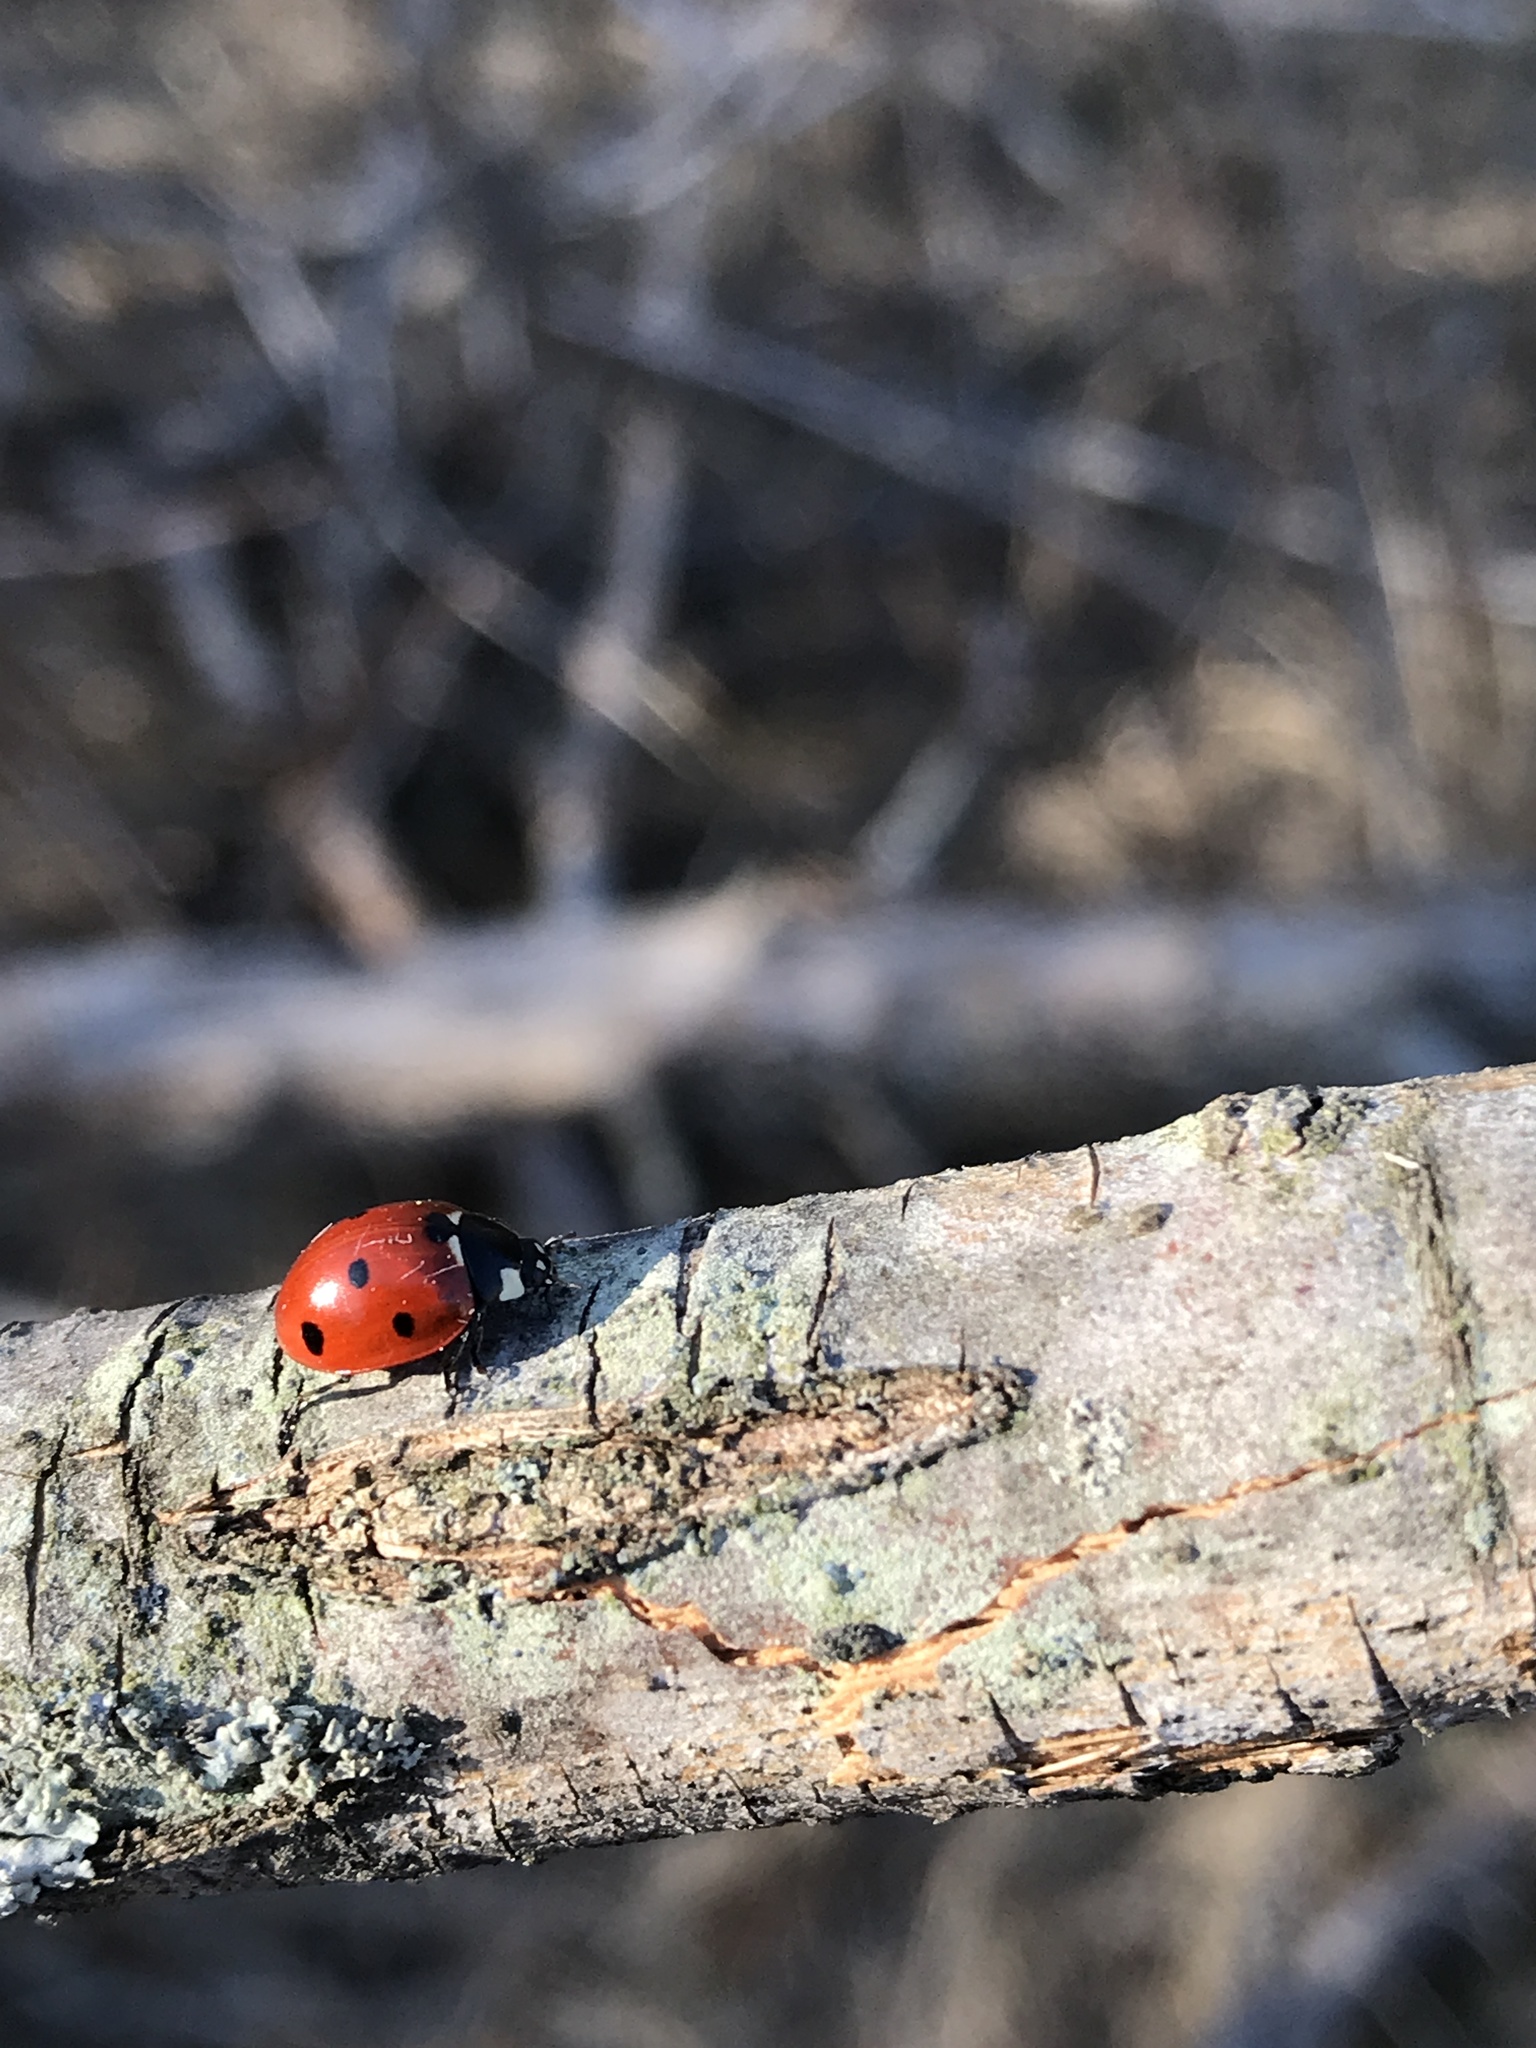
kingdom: Animalia
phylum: Arthropoda
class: Insecta
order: Coleoptera
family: Coccinellidae
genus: Coccinella
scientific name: Coccinella septempunctata
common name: Sevenspotted lady beetle
